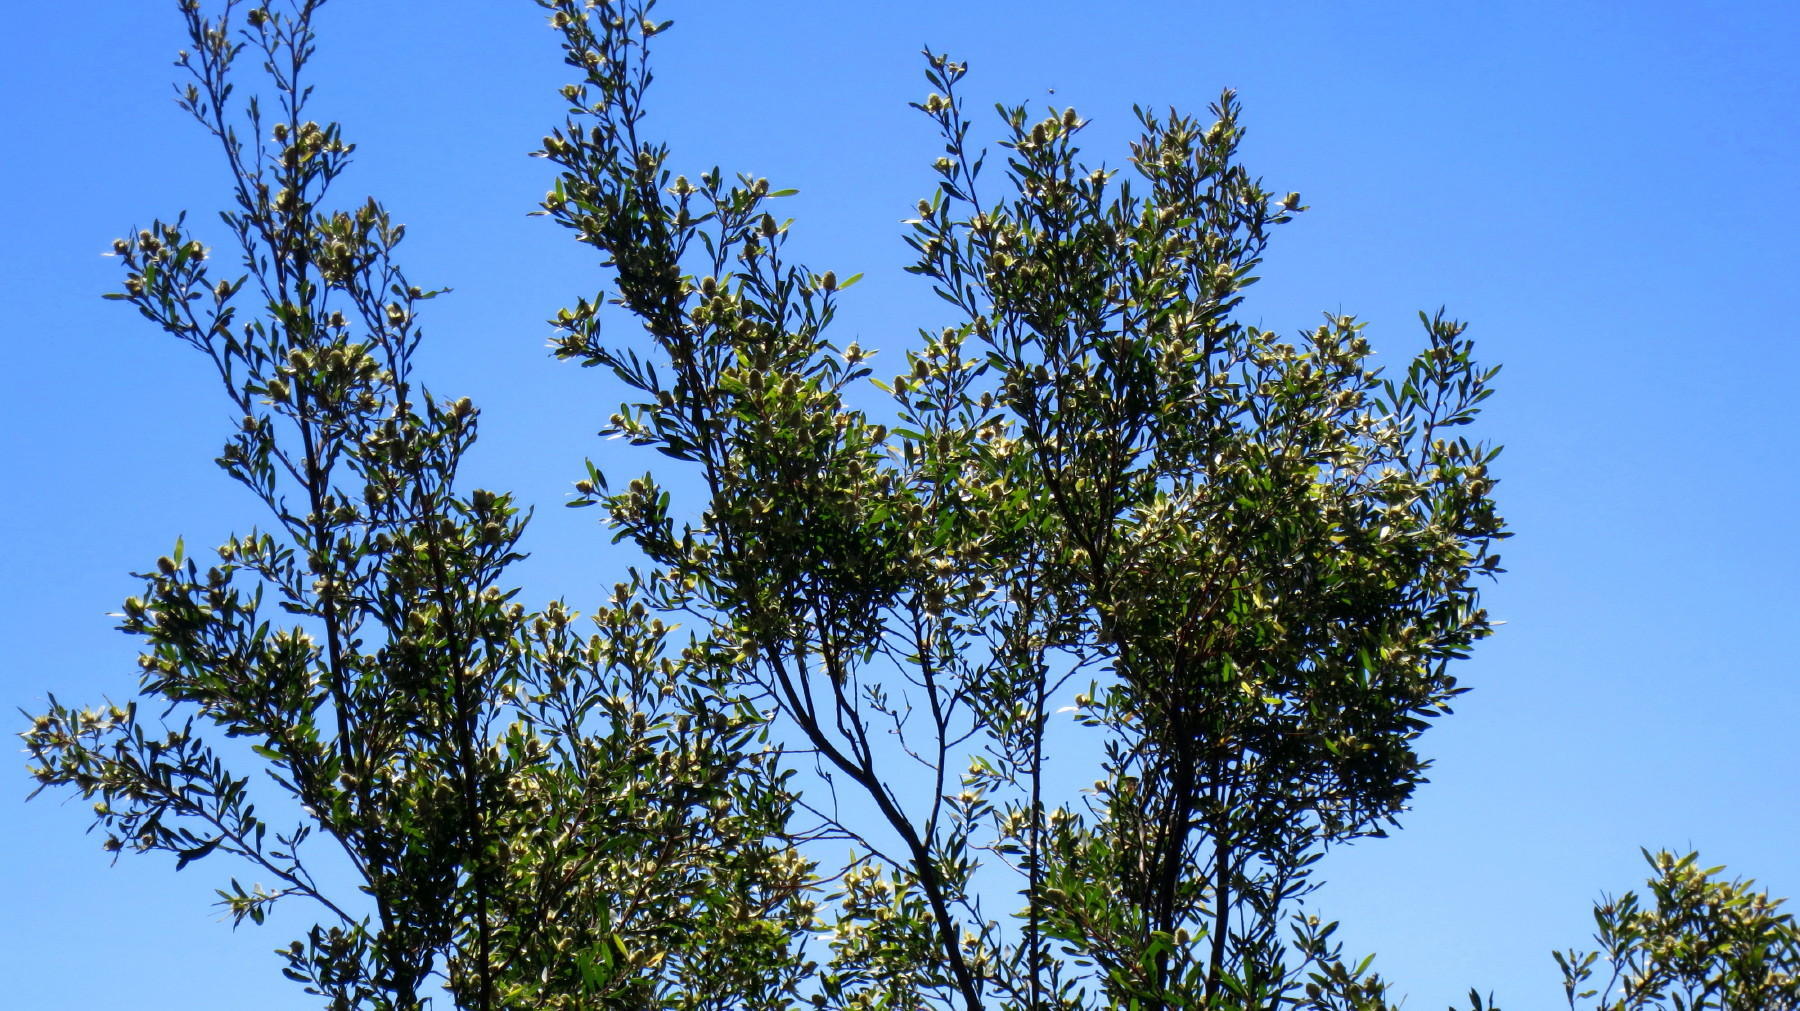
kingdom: Plantae
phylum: Tracheophyta
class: Magnoliopsida
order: Proteales
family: Proteaceae
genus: Leucadendron
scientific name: Leucadendron conicum
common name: Garden route conebush
